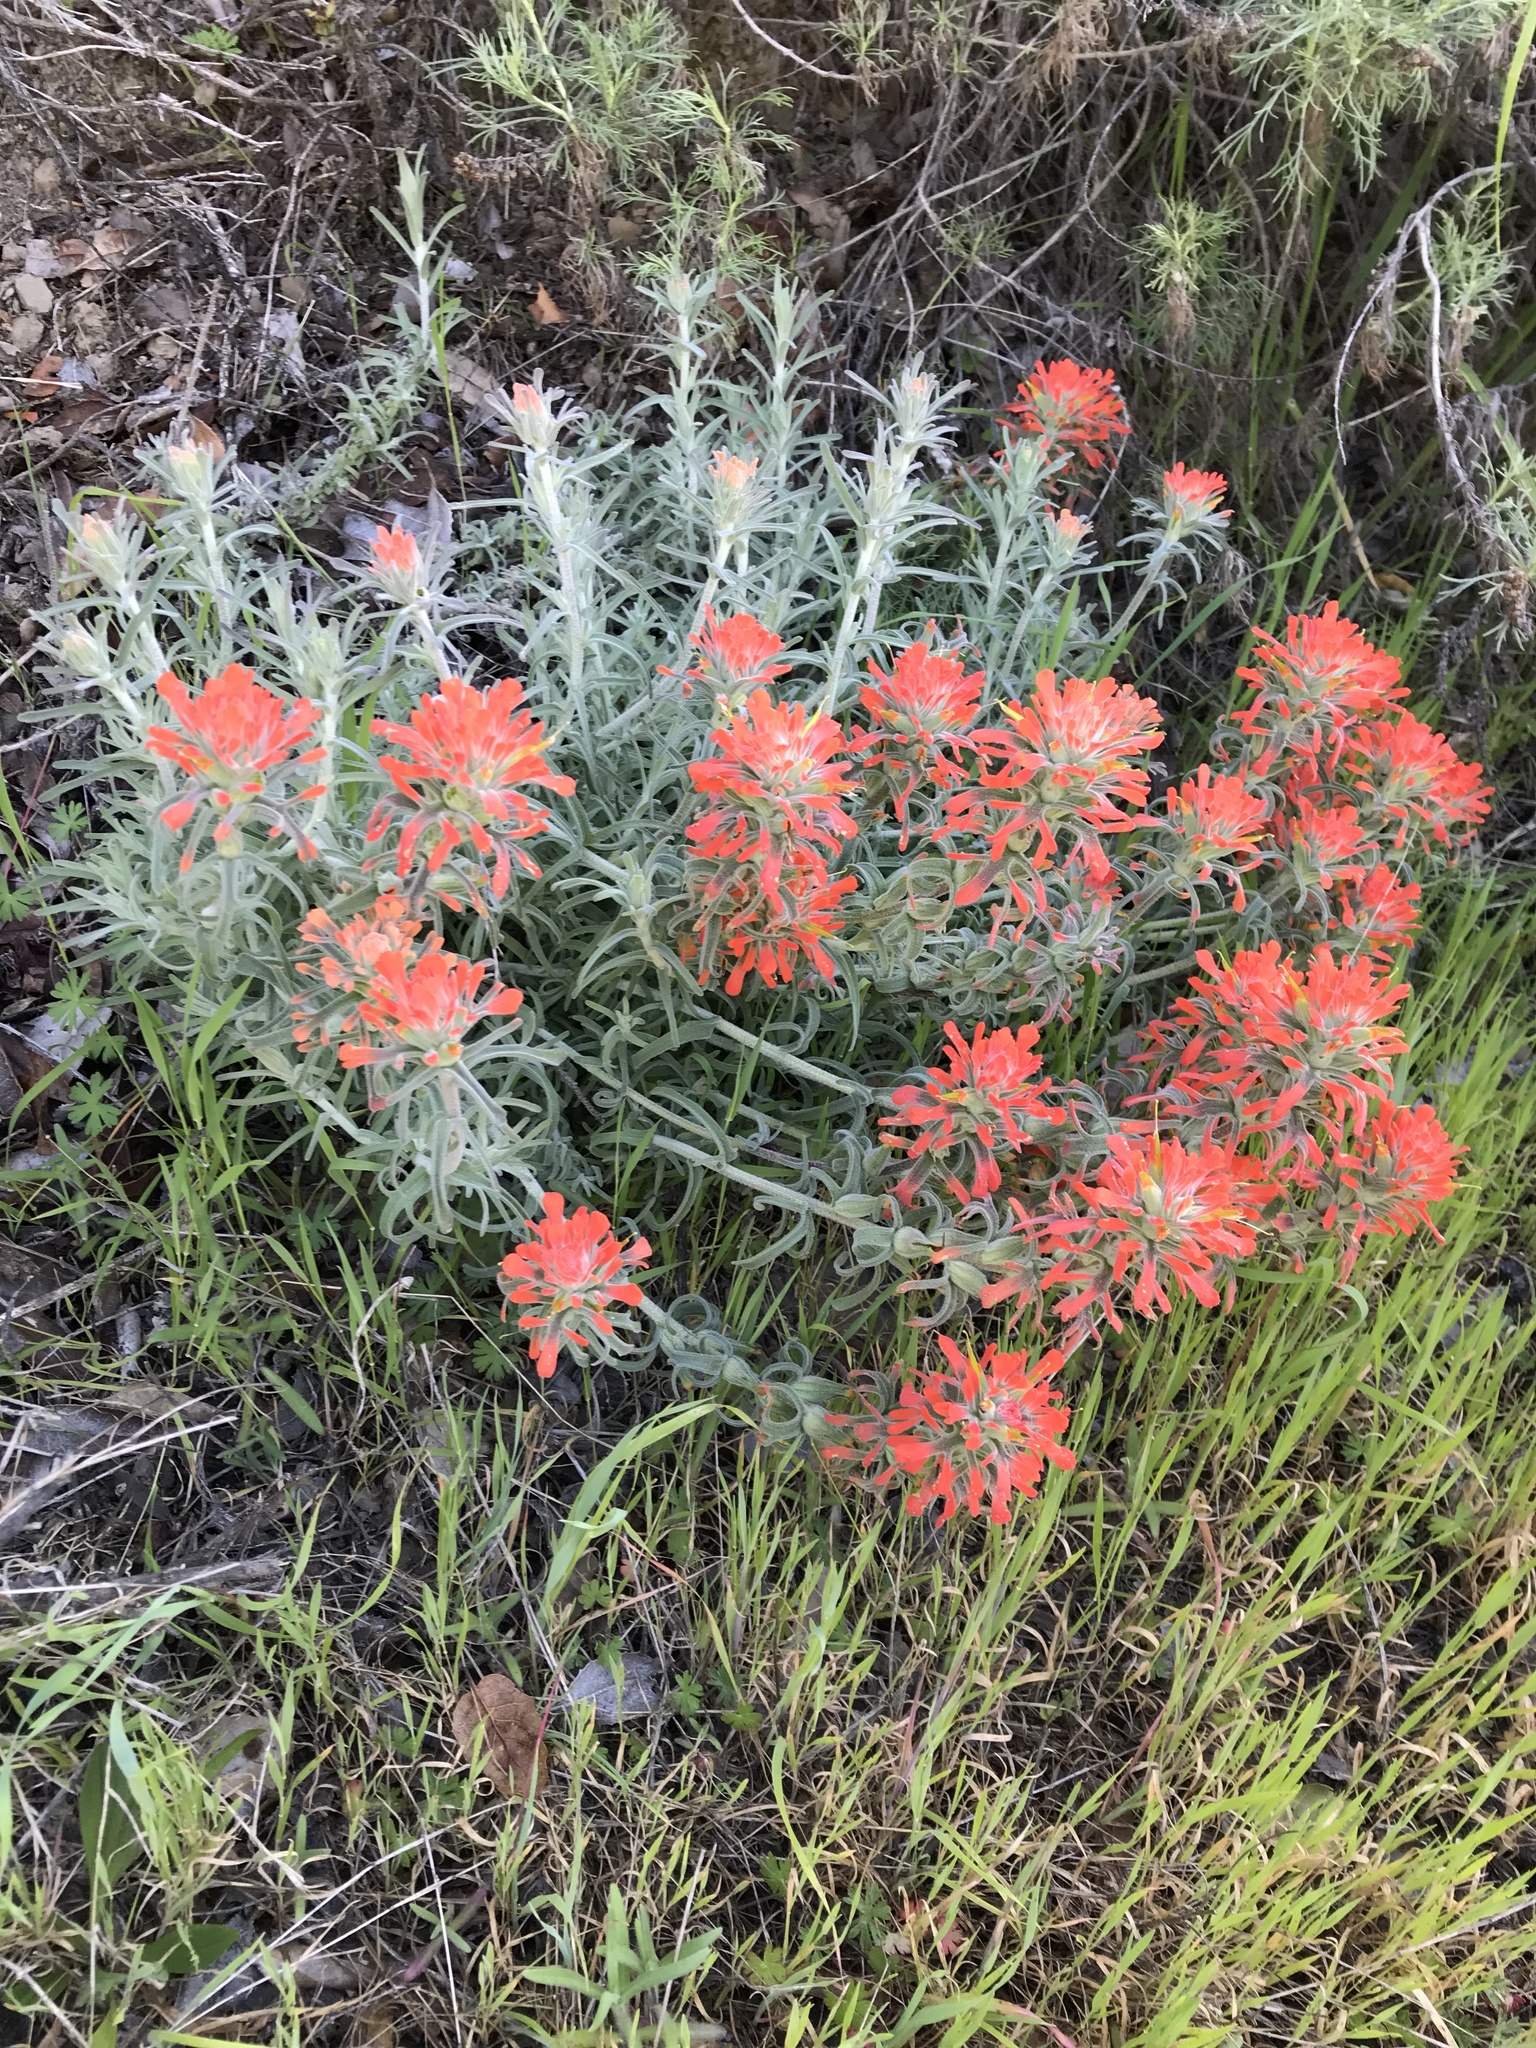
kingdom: Plantae
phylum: Tracheophyta
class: Magnoliopsida
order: Lamiales
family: Orobanchaceae
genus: Castilleja
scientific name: Castilleja foliolosa
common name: Woolly indian paintbrush
